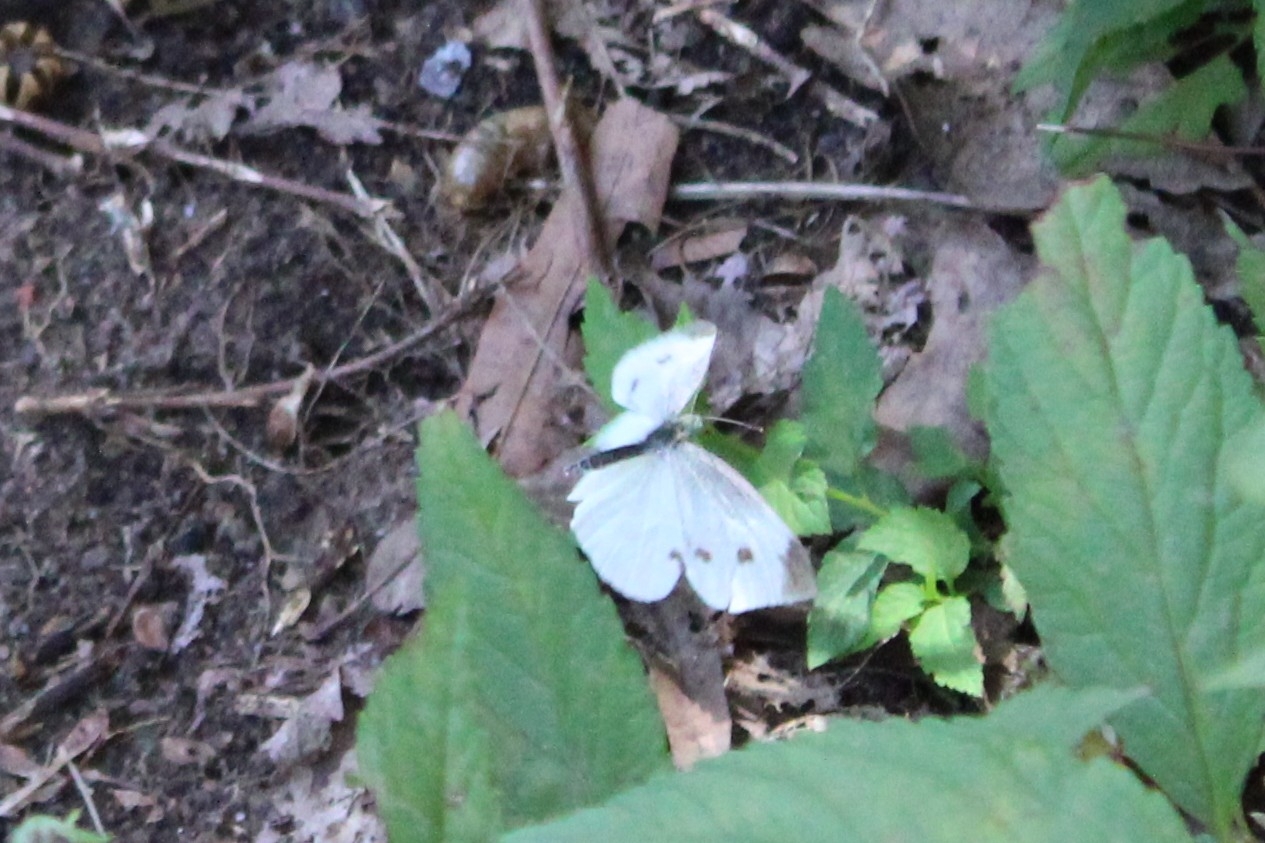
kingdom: Animalia
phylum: Arthropoda
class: Insecta
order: Lepidoptera
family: Pieridae
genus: Pieris
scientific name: Pieris rapae
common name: Small white
